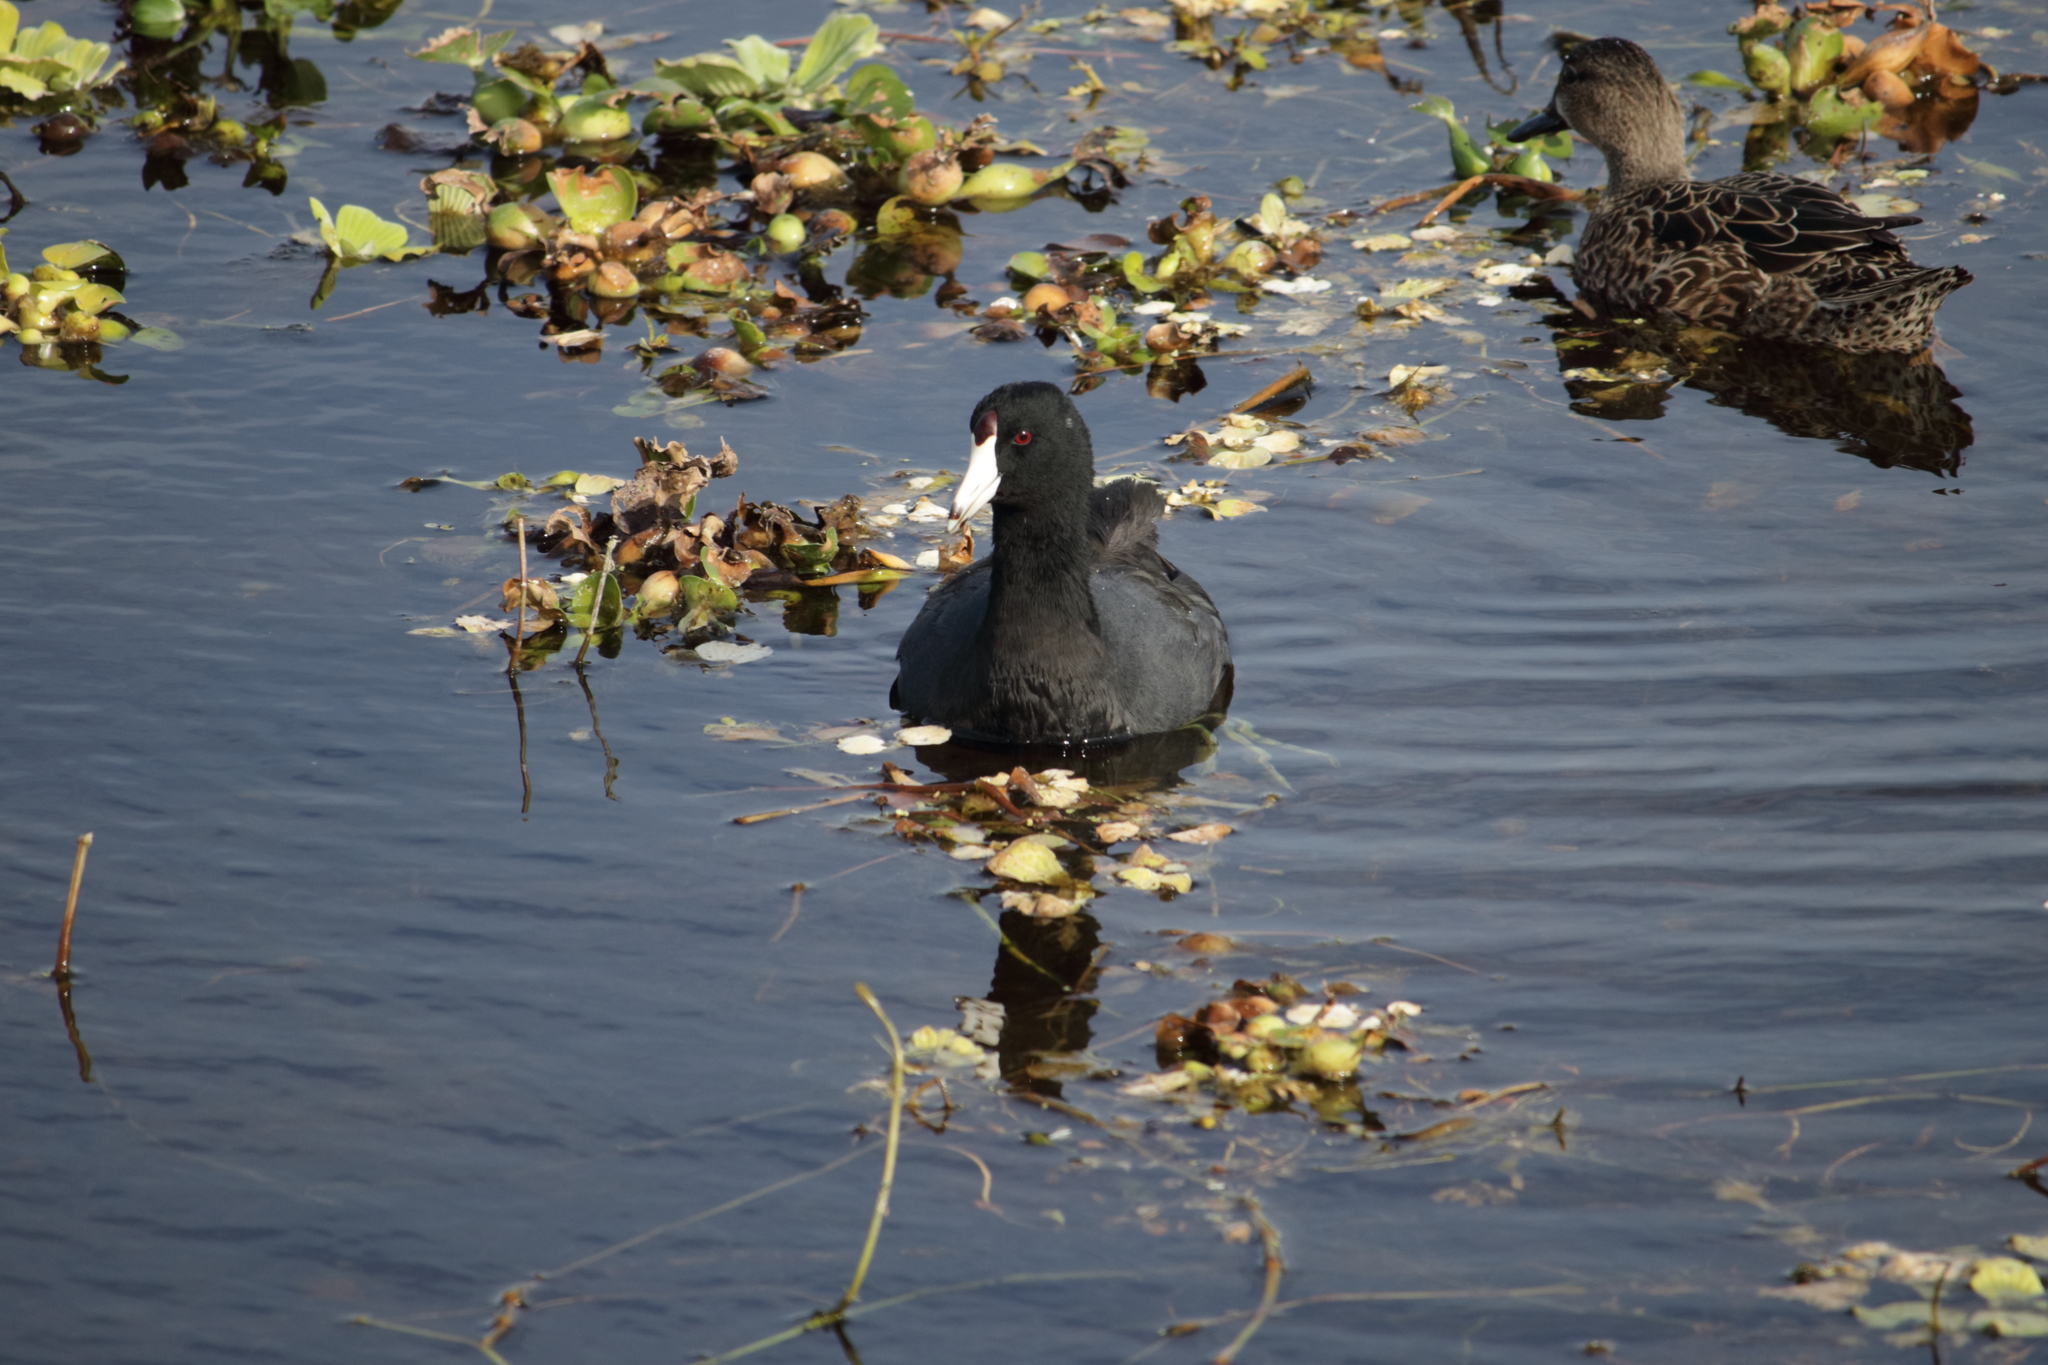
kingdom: Animalia
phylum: Chordata
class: Aves
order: Gruiformes
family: Rallidae
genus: Fulica
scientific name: Fulica americana
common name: American coot
